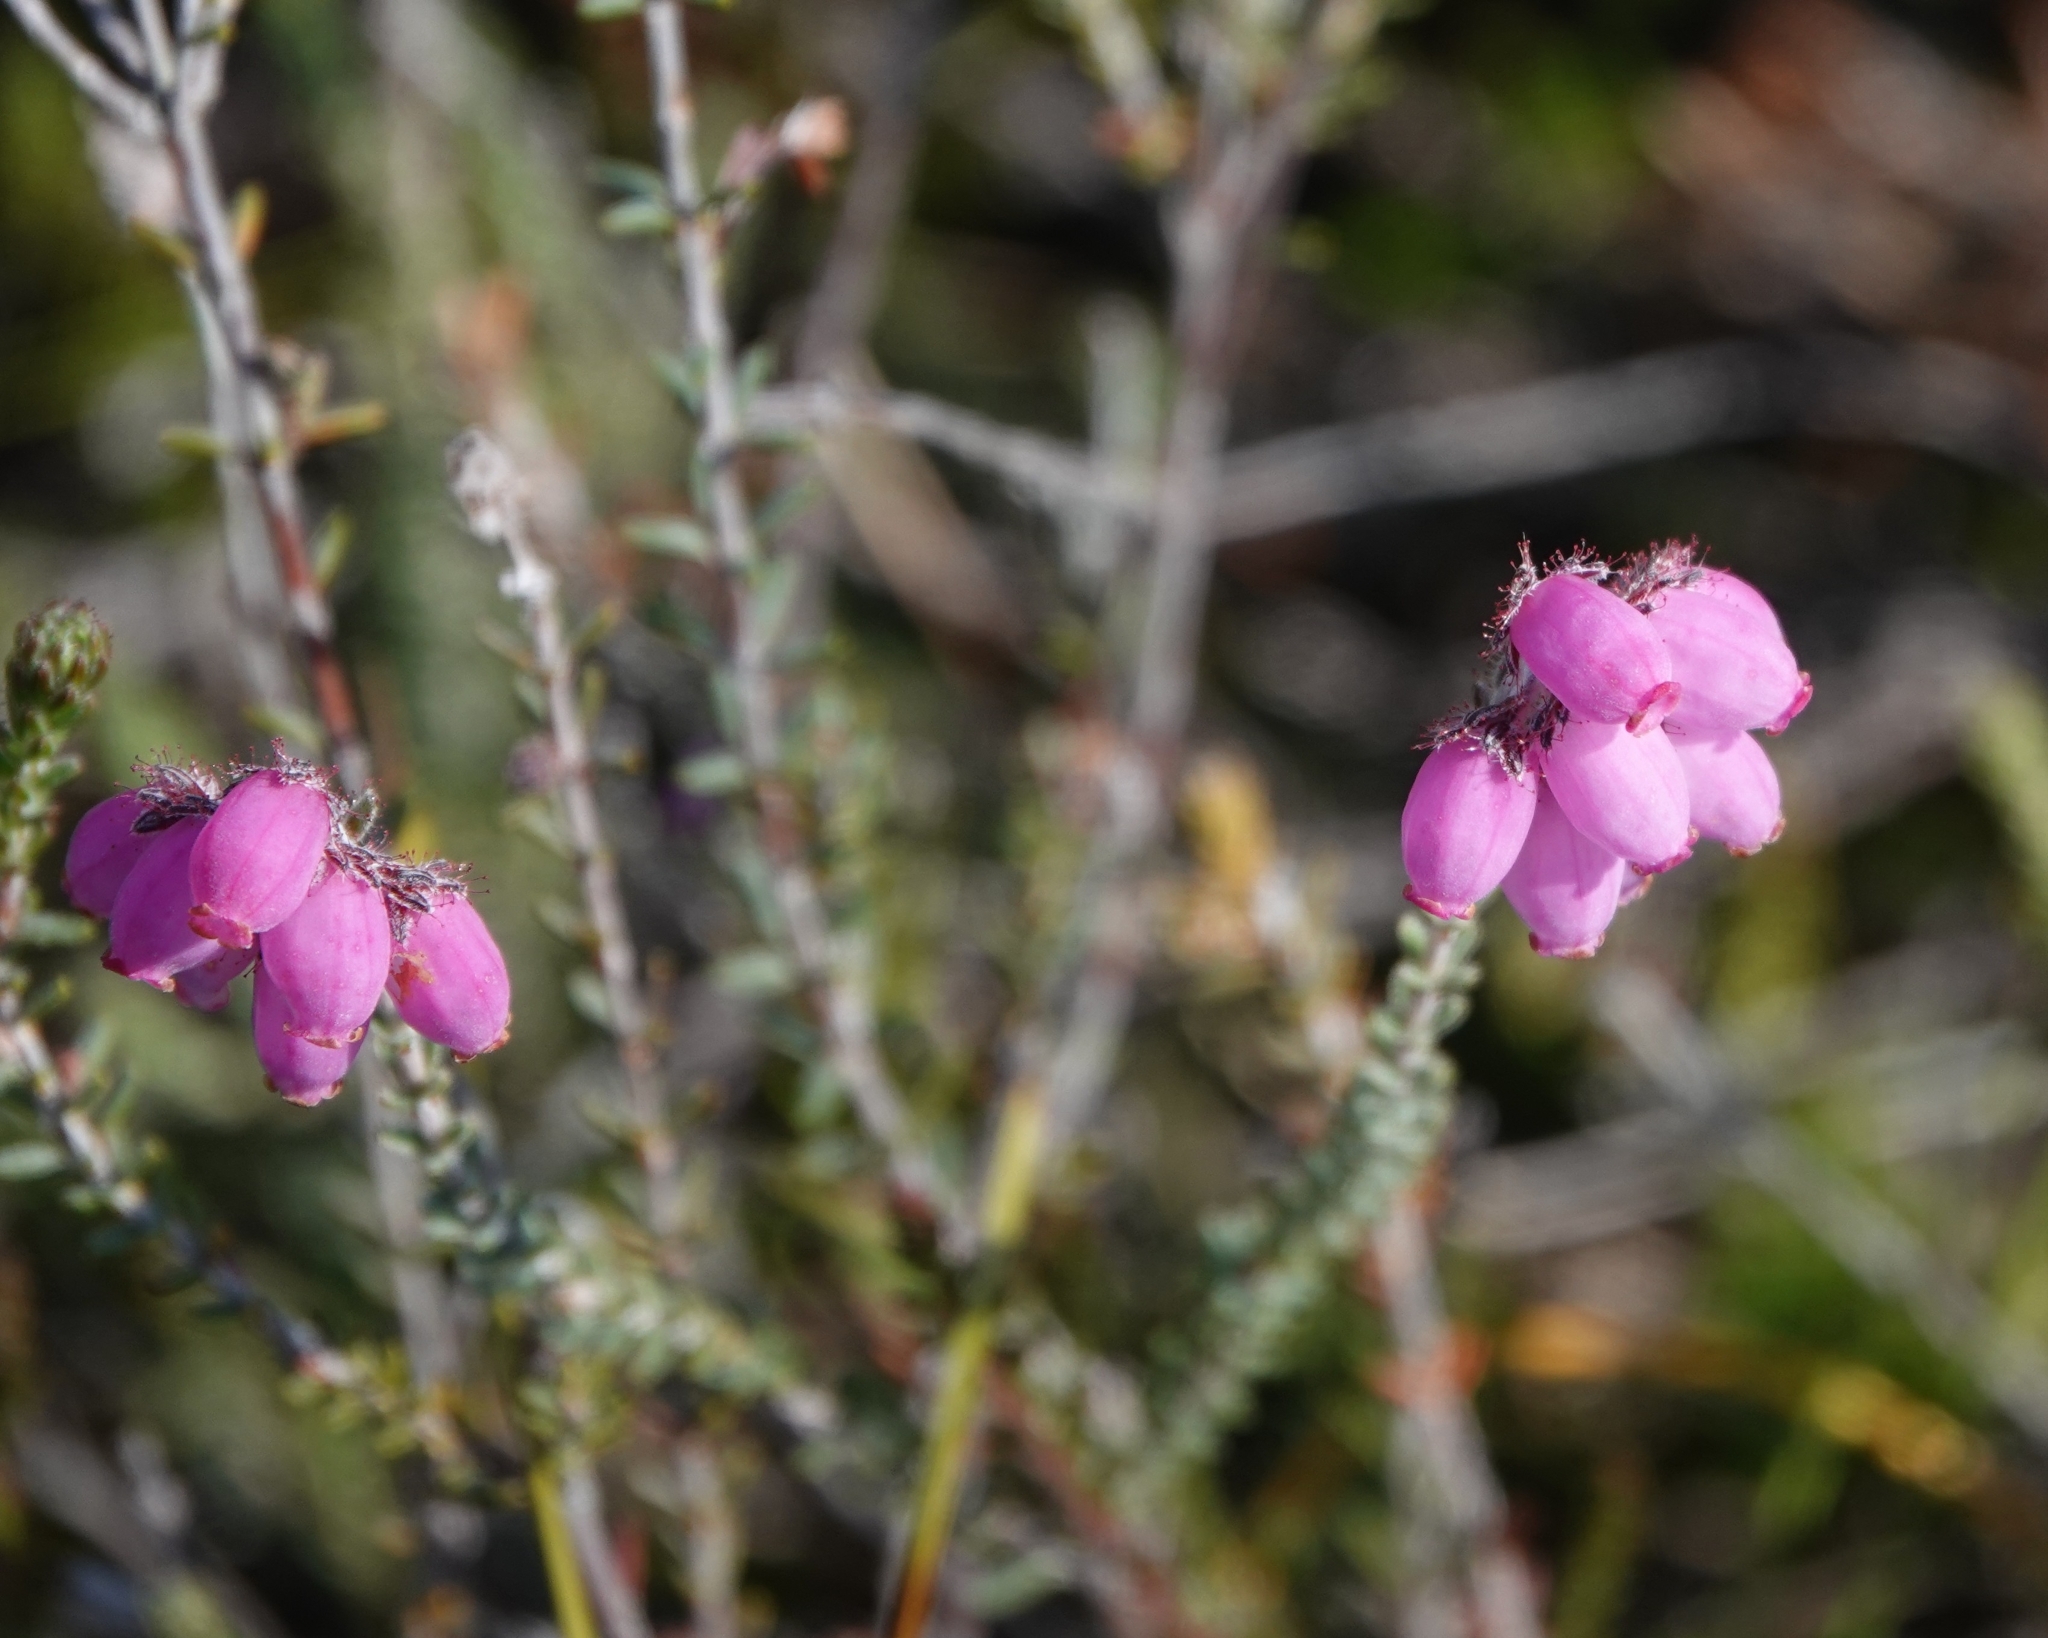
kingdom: Plantae
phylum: Tracheophyta
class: Magnoliopsida
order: Ericales
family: Ericaceae
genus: Erica
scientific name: Erica tetralix
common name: Cross-leaved heath
